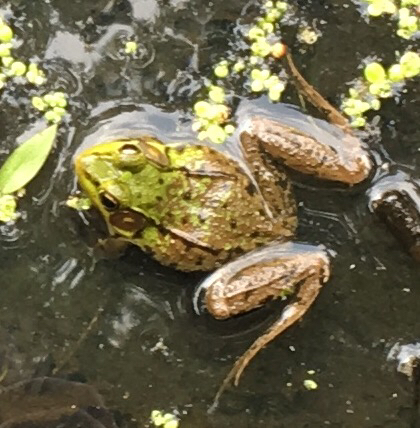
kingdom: Animalia
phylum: Chordata
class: Amphibia
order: Anura
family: Ranidae
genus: Lithobates
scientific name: Lithobates clamitans
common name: Green frog
